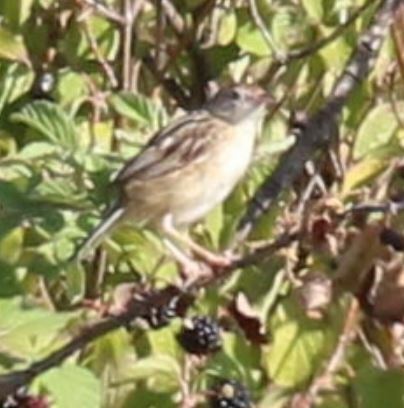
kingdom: Animalia
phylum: Chordata
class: Aves
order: Passeriformes
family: Cisticolidae
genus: Cisticola
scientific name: Cisticola juncidis
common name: Zitting cisticola
